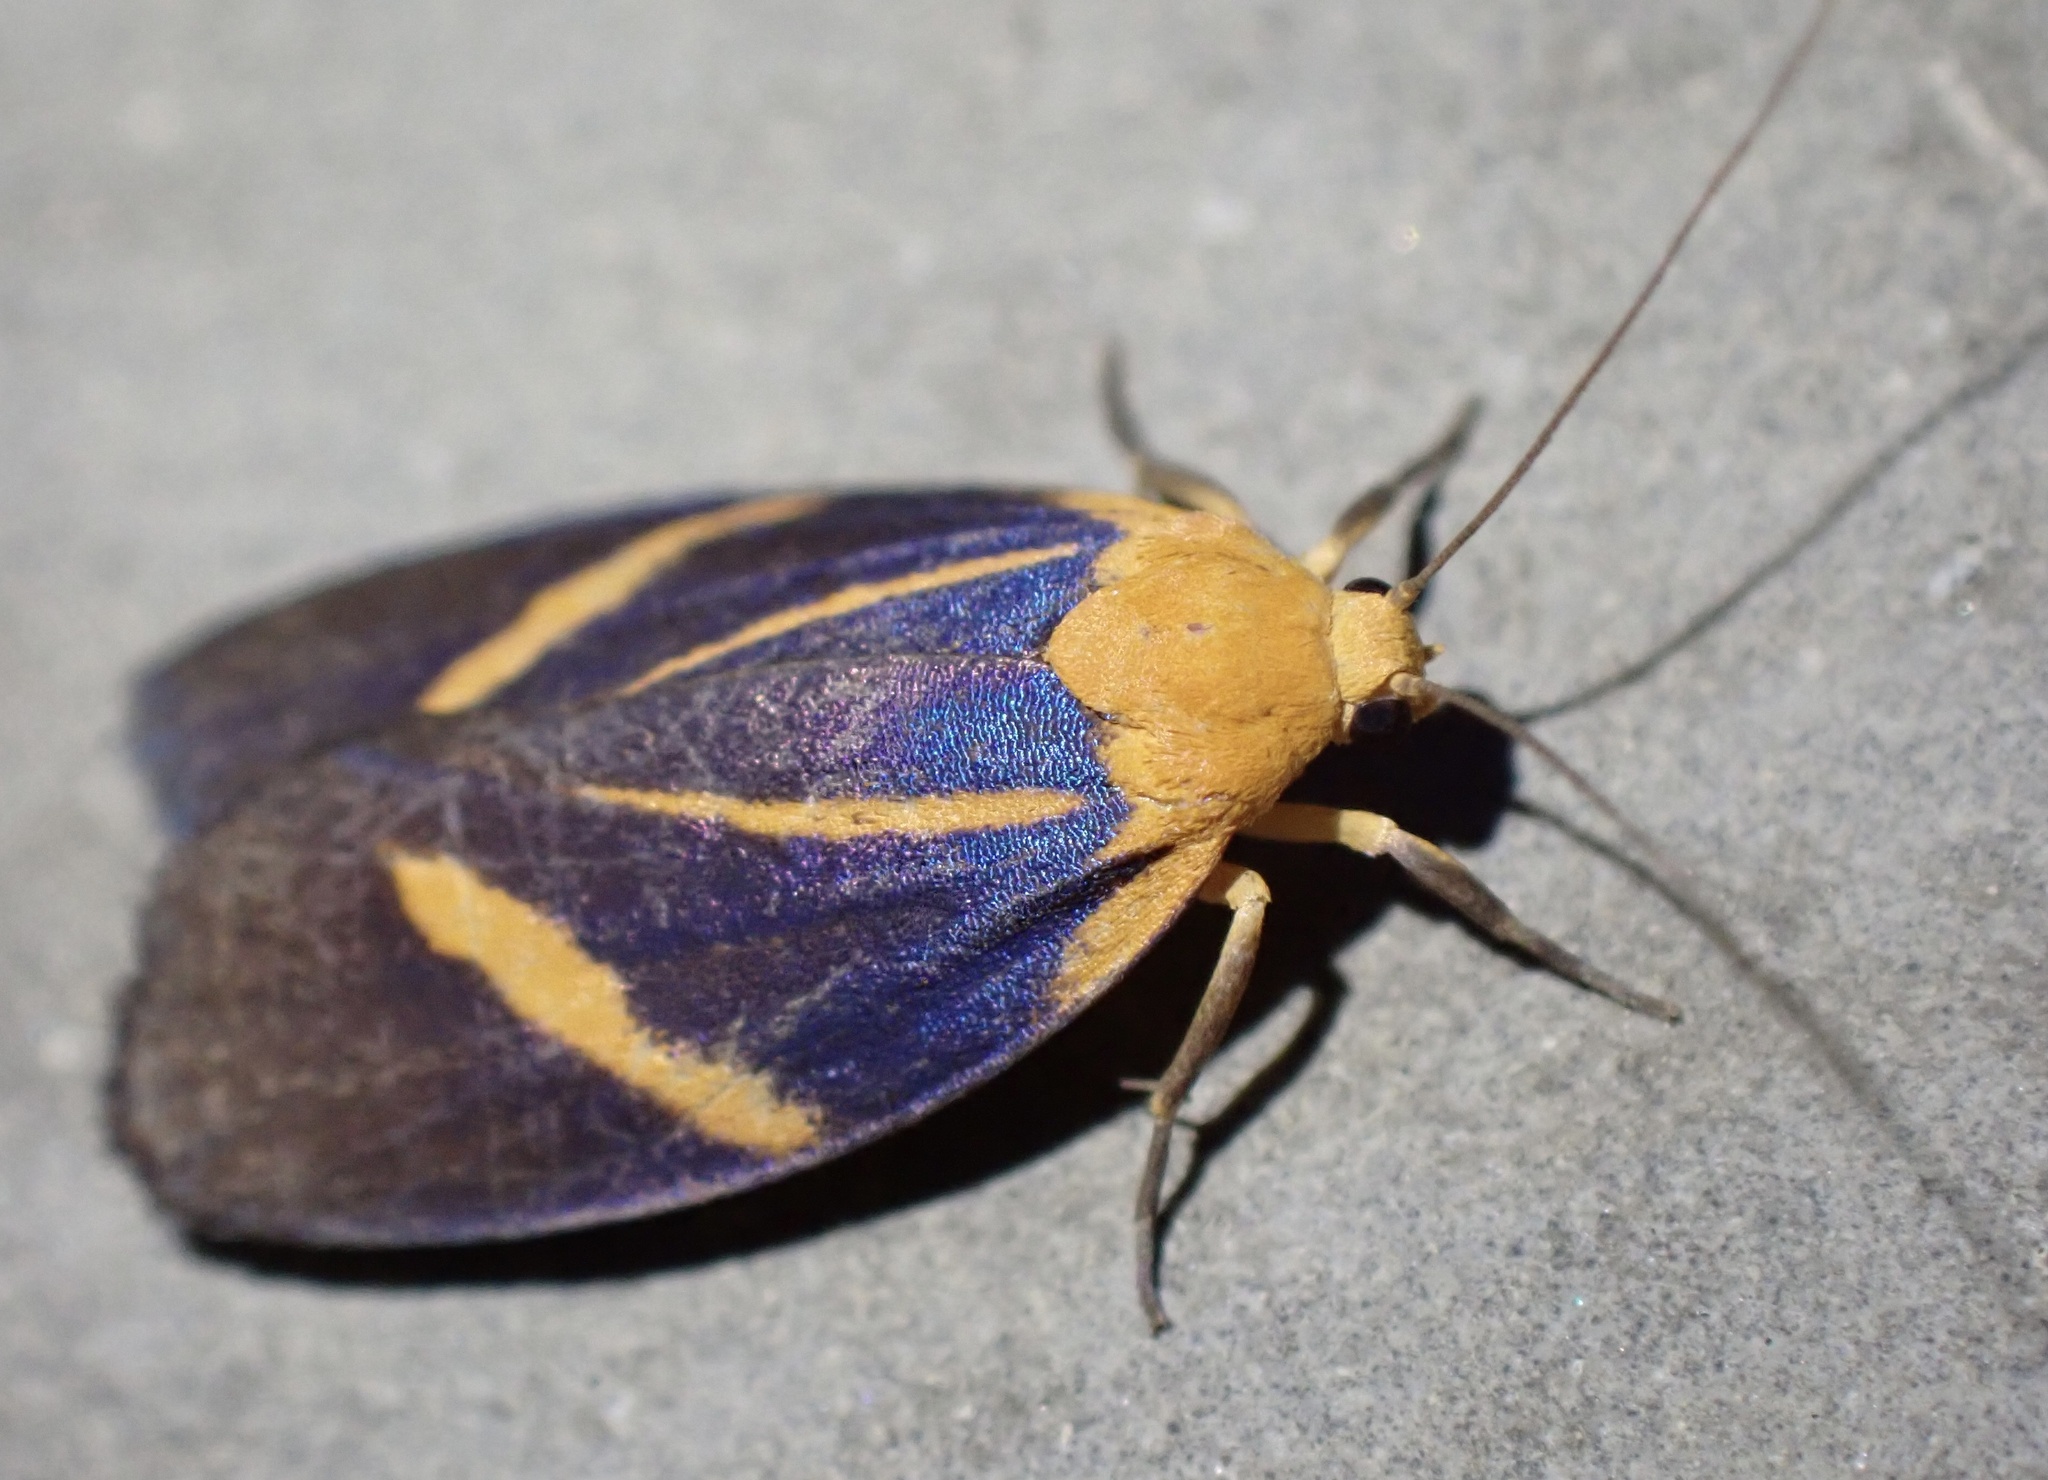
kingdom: Animalia
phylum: Arthropoda
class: Insecta
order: Lepidoptera
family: Erebidae
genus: Darantasia
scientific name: Darantasia caerulescens
